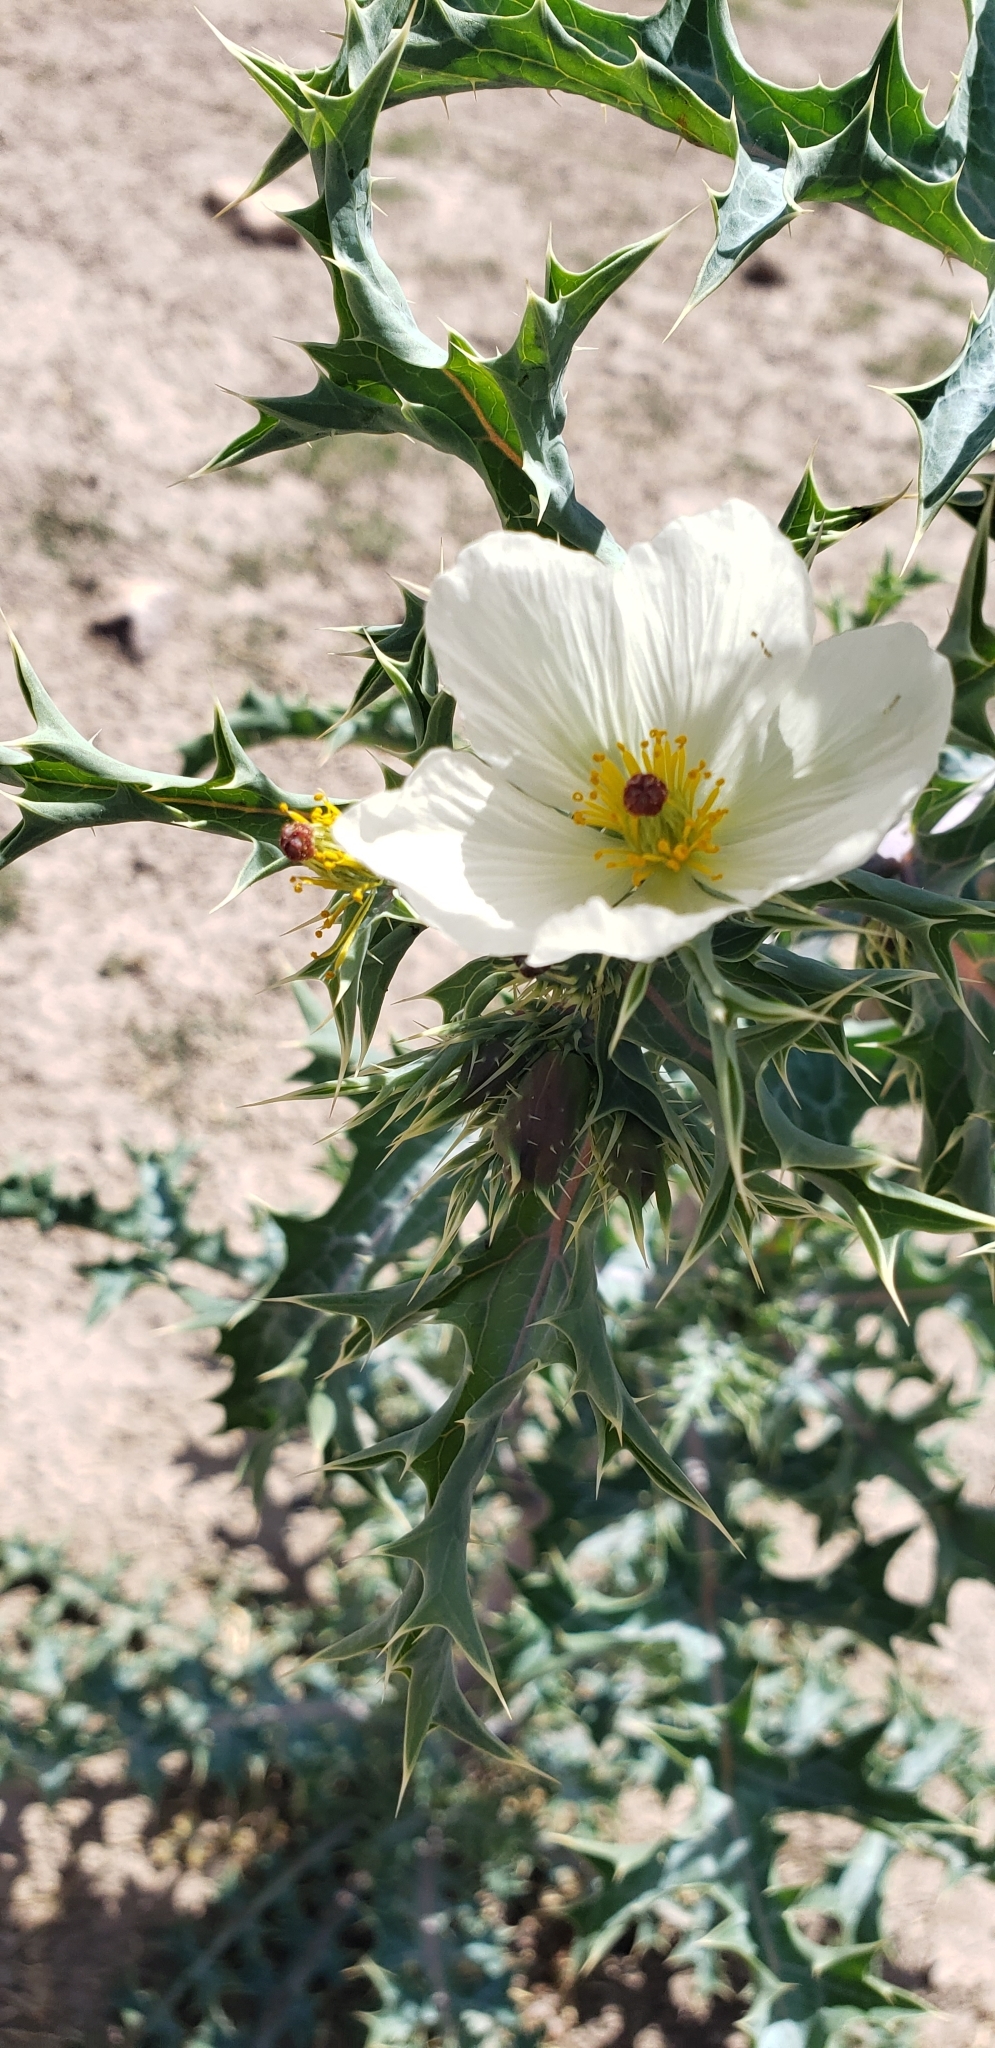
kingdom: Plantae
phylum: Tracheophyta
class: Magnoliopsida
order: Ranunculales
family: Papaveraceae
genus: Argemone
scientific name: Argemone grandiflora
